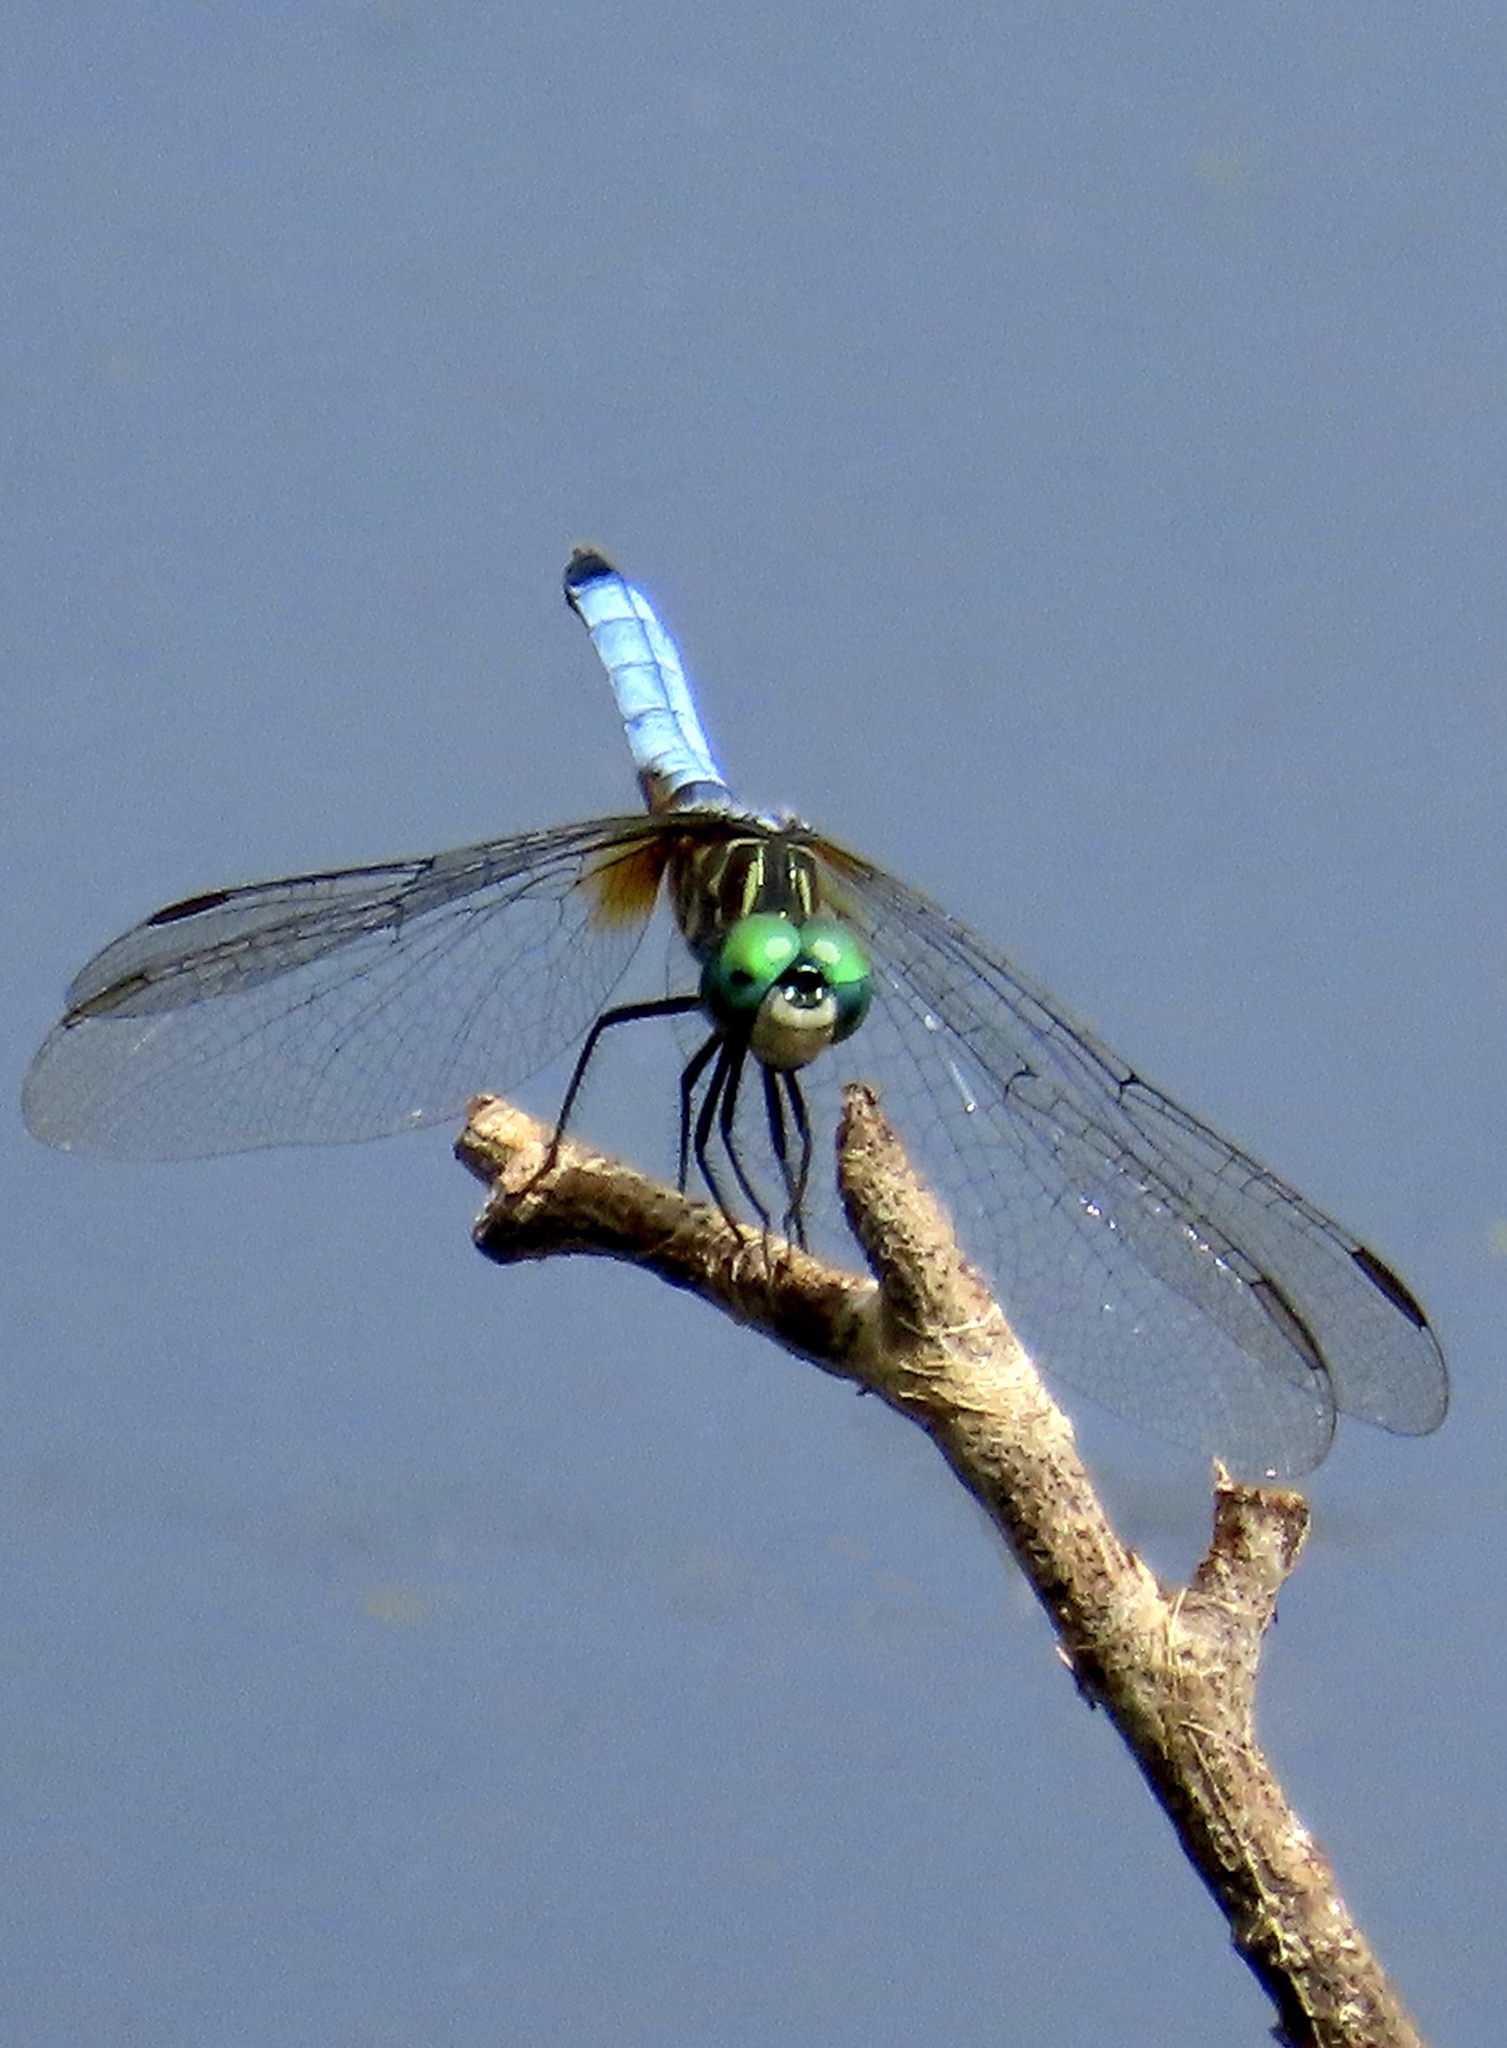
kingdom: Animalia
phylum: Arthropoda
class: Insecta
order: Odonata
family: Libellulidae
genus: Pachydiplax
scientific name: Pachydiplax longipennis
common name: Blue dasher
